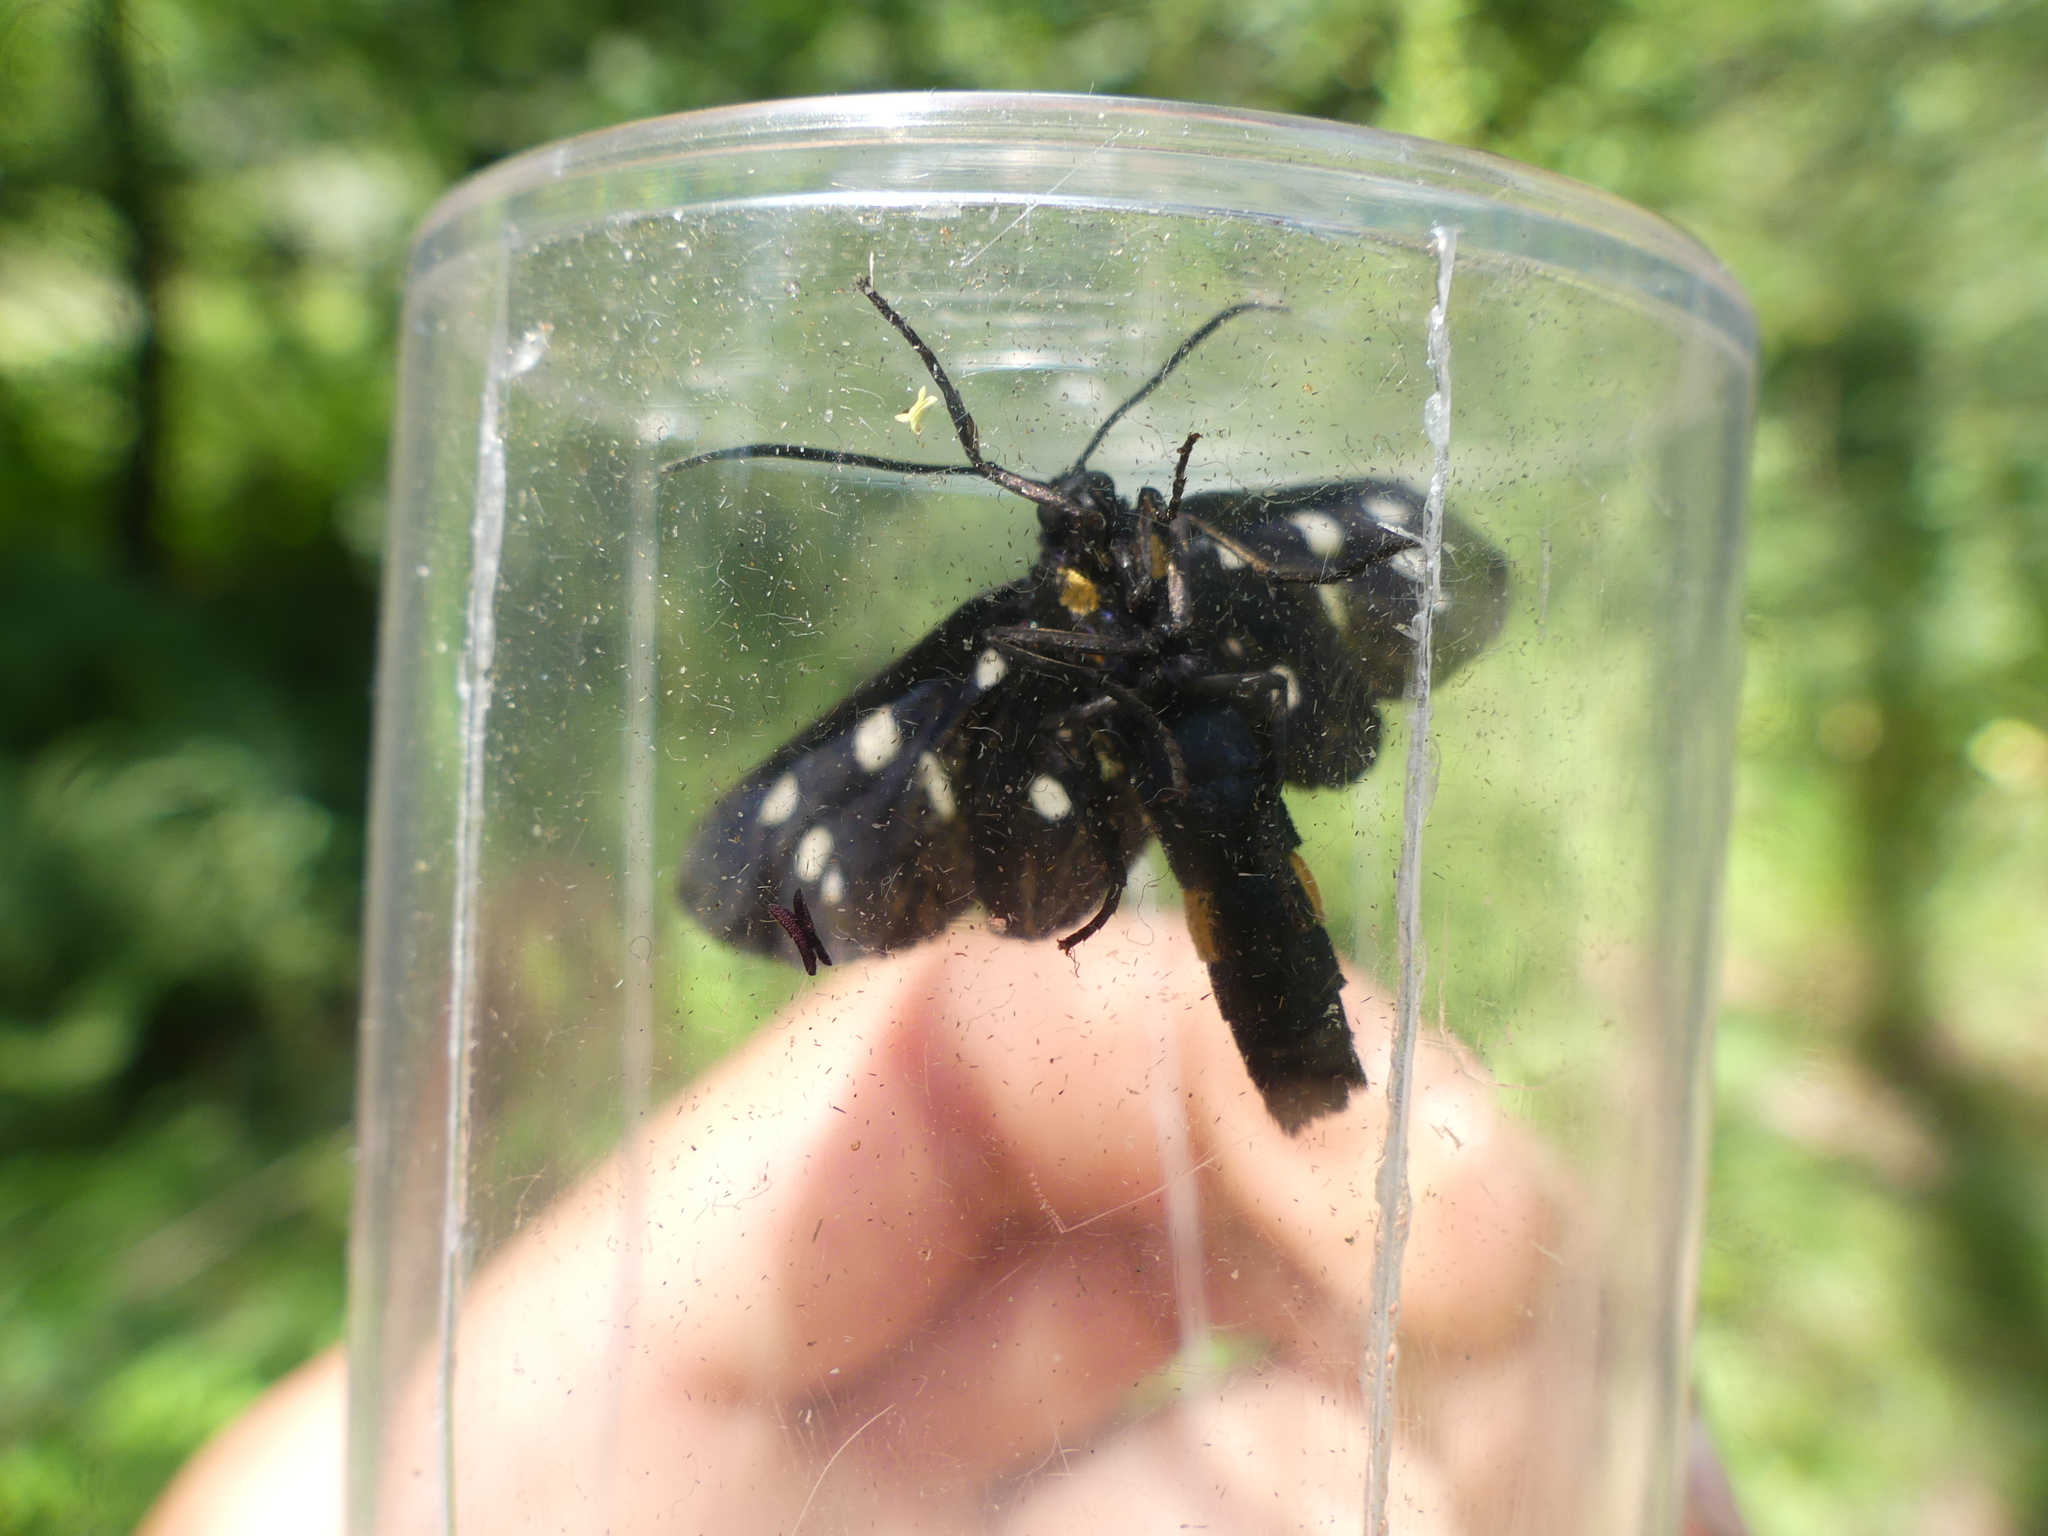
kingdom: Animalia
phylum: Arthropoda
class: Insecta
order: Lepidoptera
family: Erebidae
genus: Amata
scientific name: Amata phegea
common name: Nine-spotted
